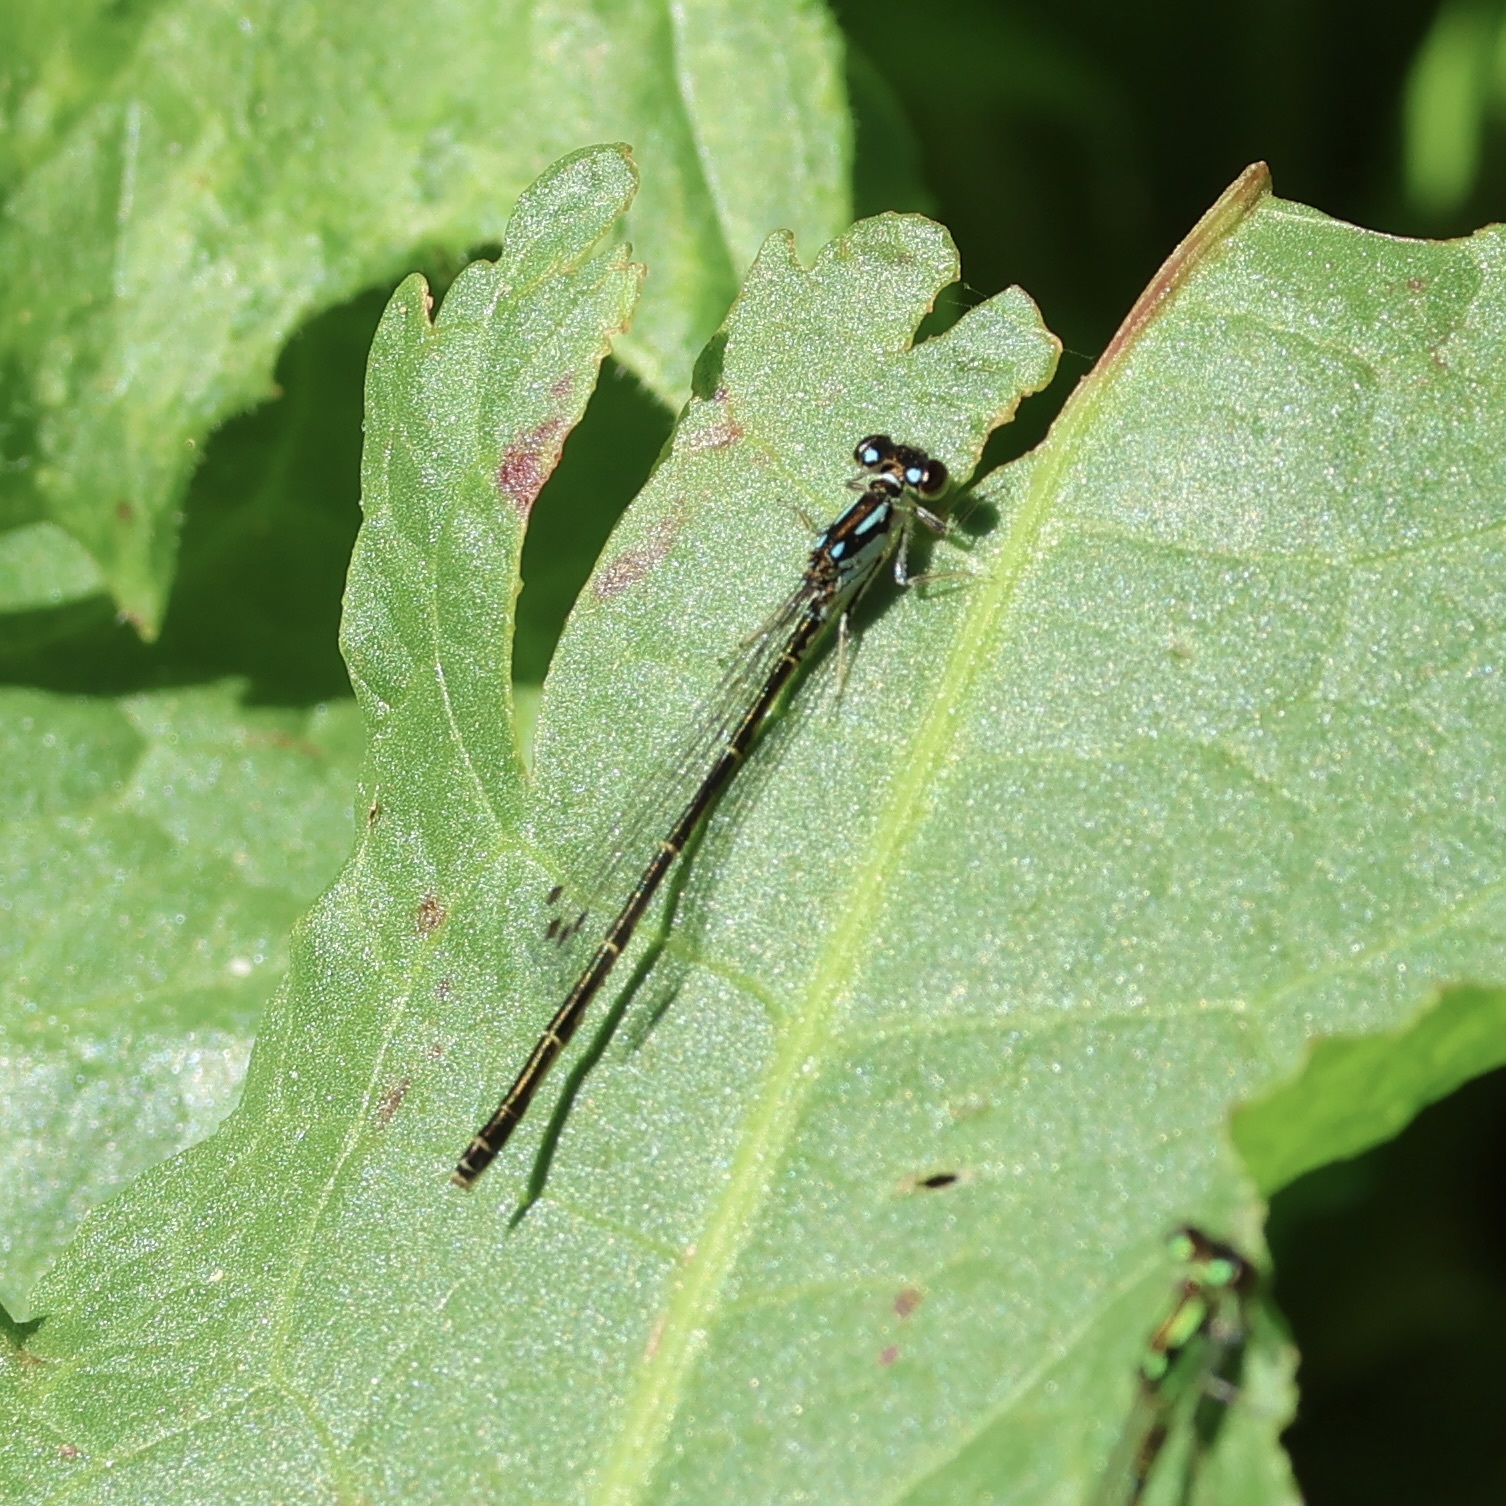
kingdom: Animalia
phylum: Arthropoda
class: Insecta
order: Odonata
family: Coenagrionidae
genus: Ischnura
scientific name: Ischnura posita
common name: Fragile forktail
